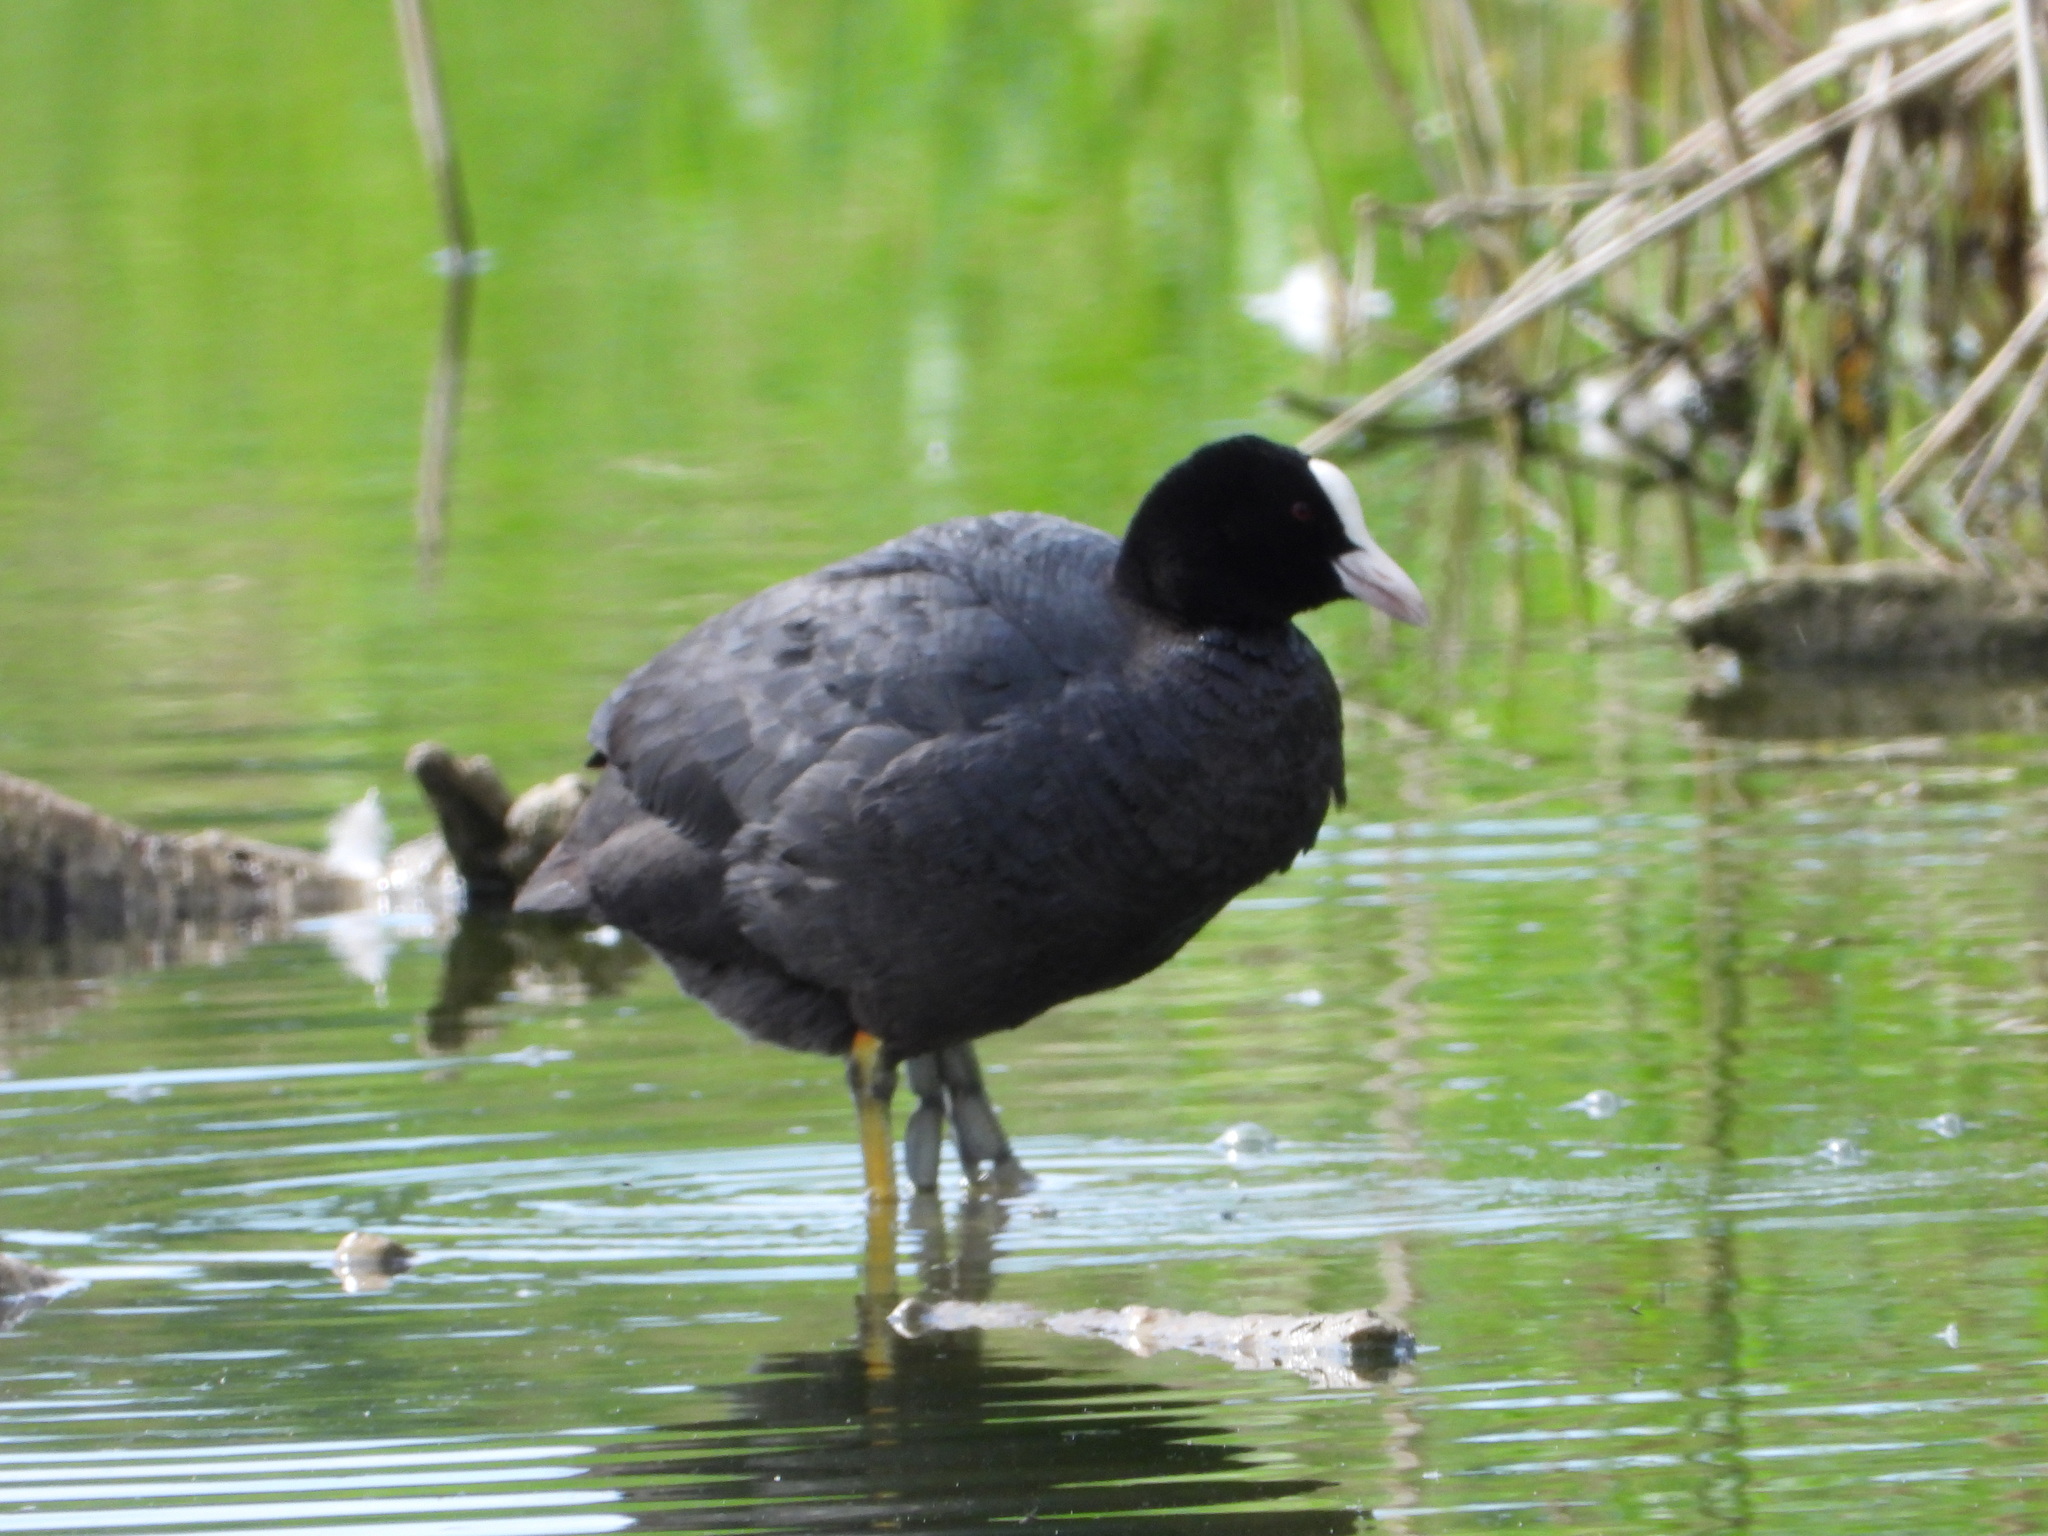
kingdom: Animalia
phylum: Chordata
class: Aves
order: Gruiformes
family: Rallidae
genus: Fulica
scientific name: Fulica atra
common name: Eurasian coot
